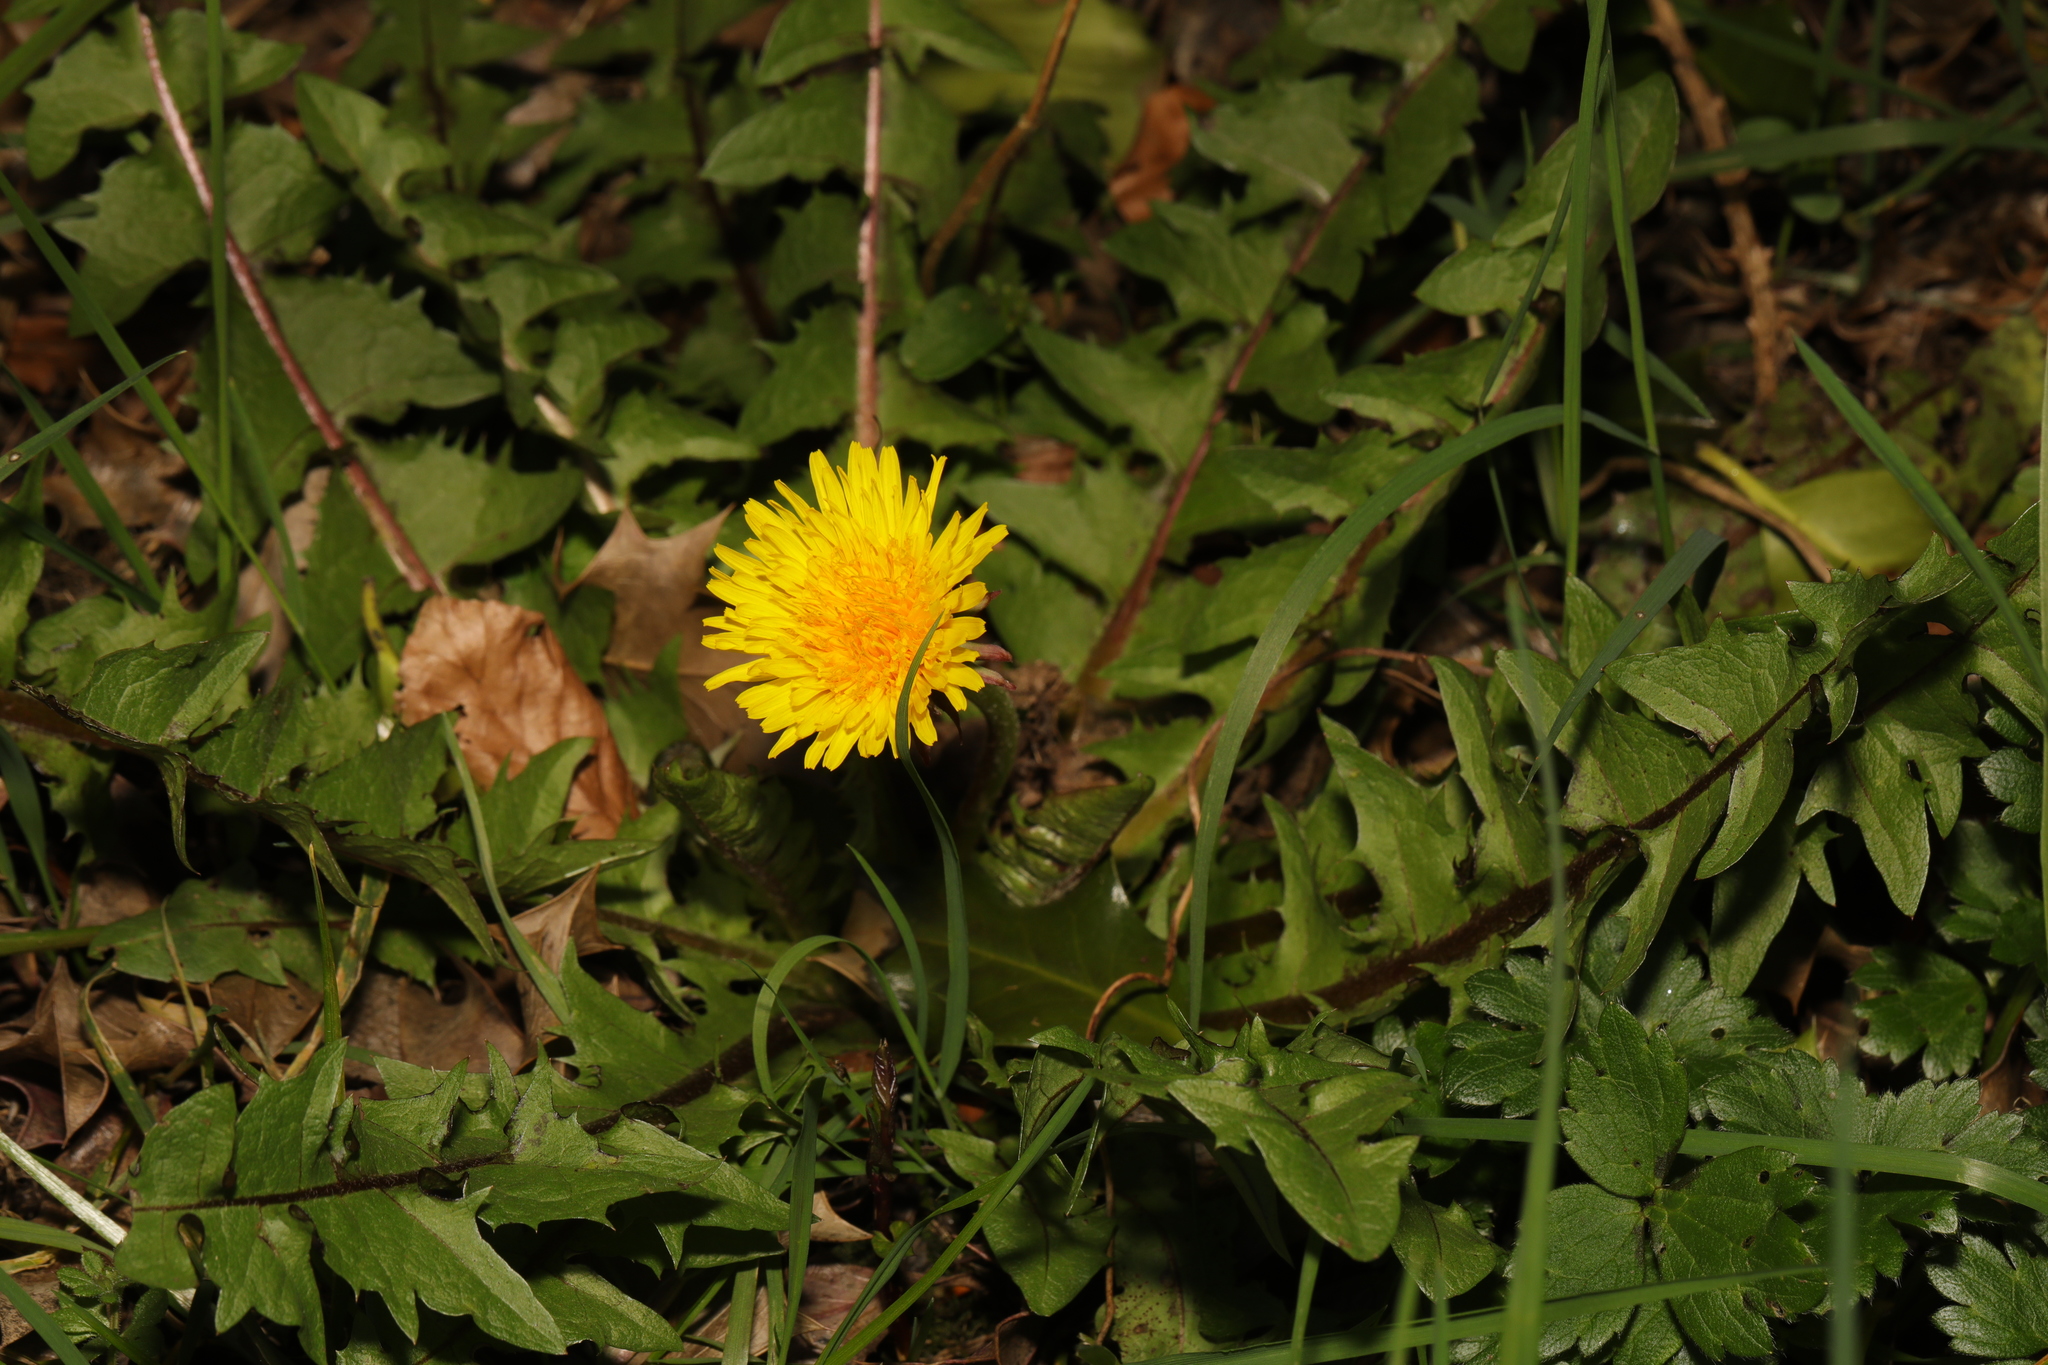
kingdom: Plantae
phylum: Tracheophyta
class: Magnoliopsida
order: Asterales
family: Asteraceae
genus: Taraxacum
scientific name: Taraxacum officinale
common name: Common dandelion
